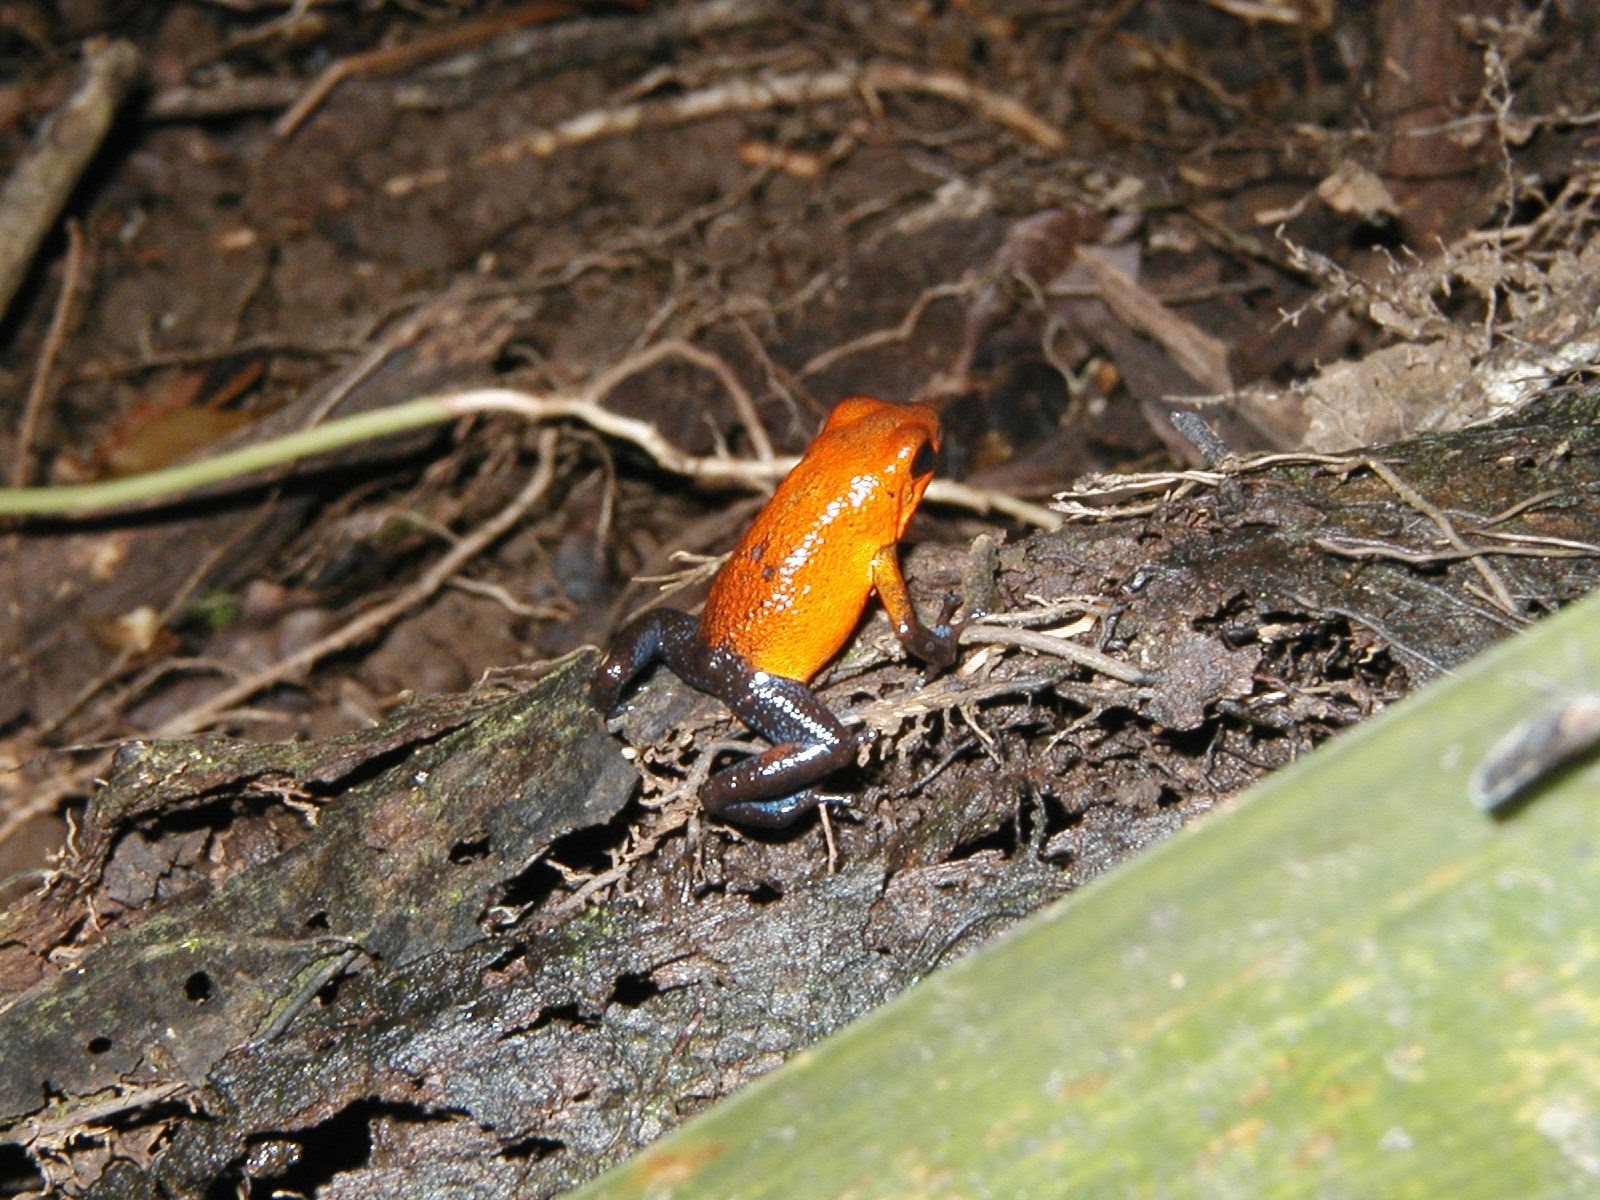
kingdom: Animalia
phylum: Chordata
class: Amphibia
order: Anura
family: Dendrobatidae
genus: Oophaga
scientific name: Oophaga pumilio
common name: Flaming poison frog
